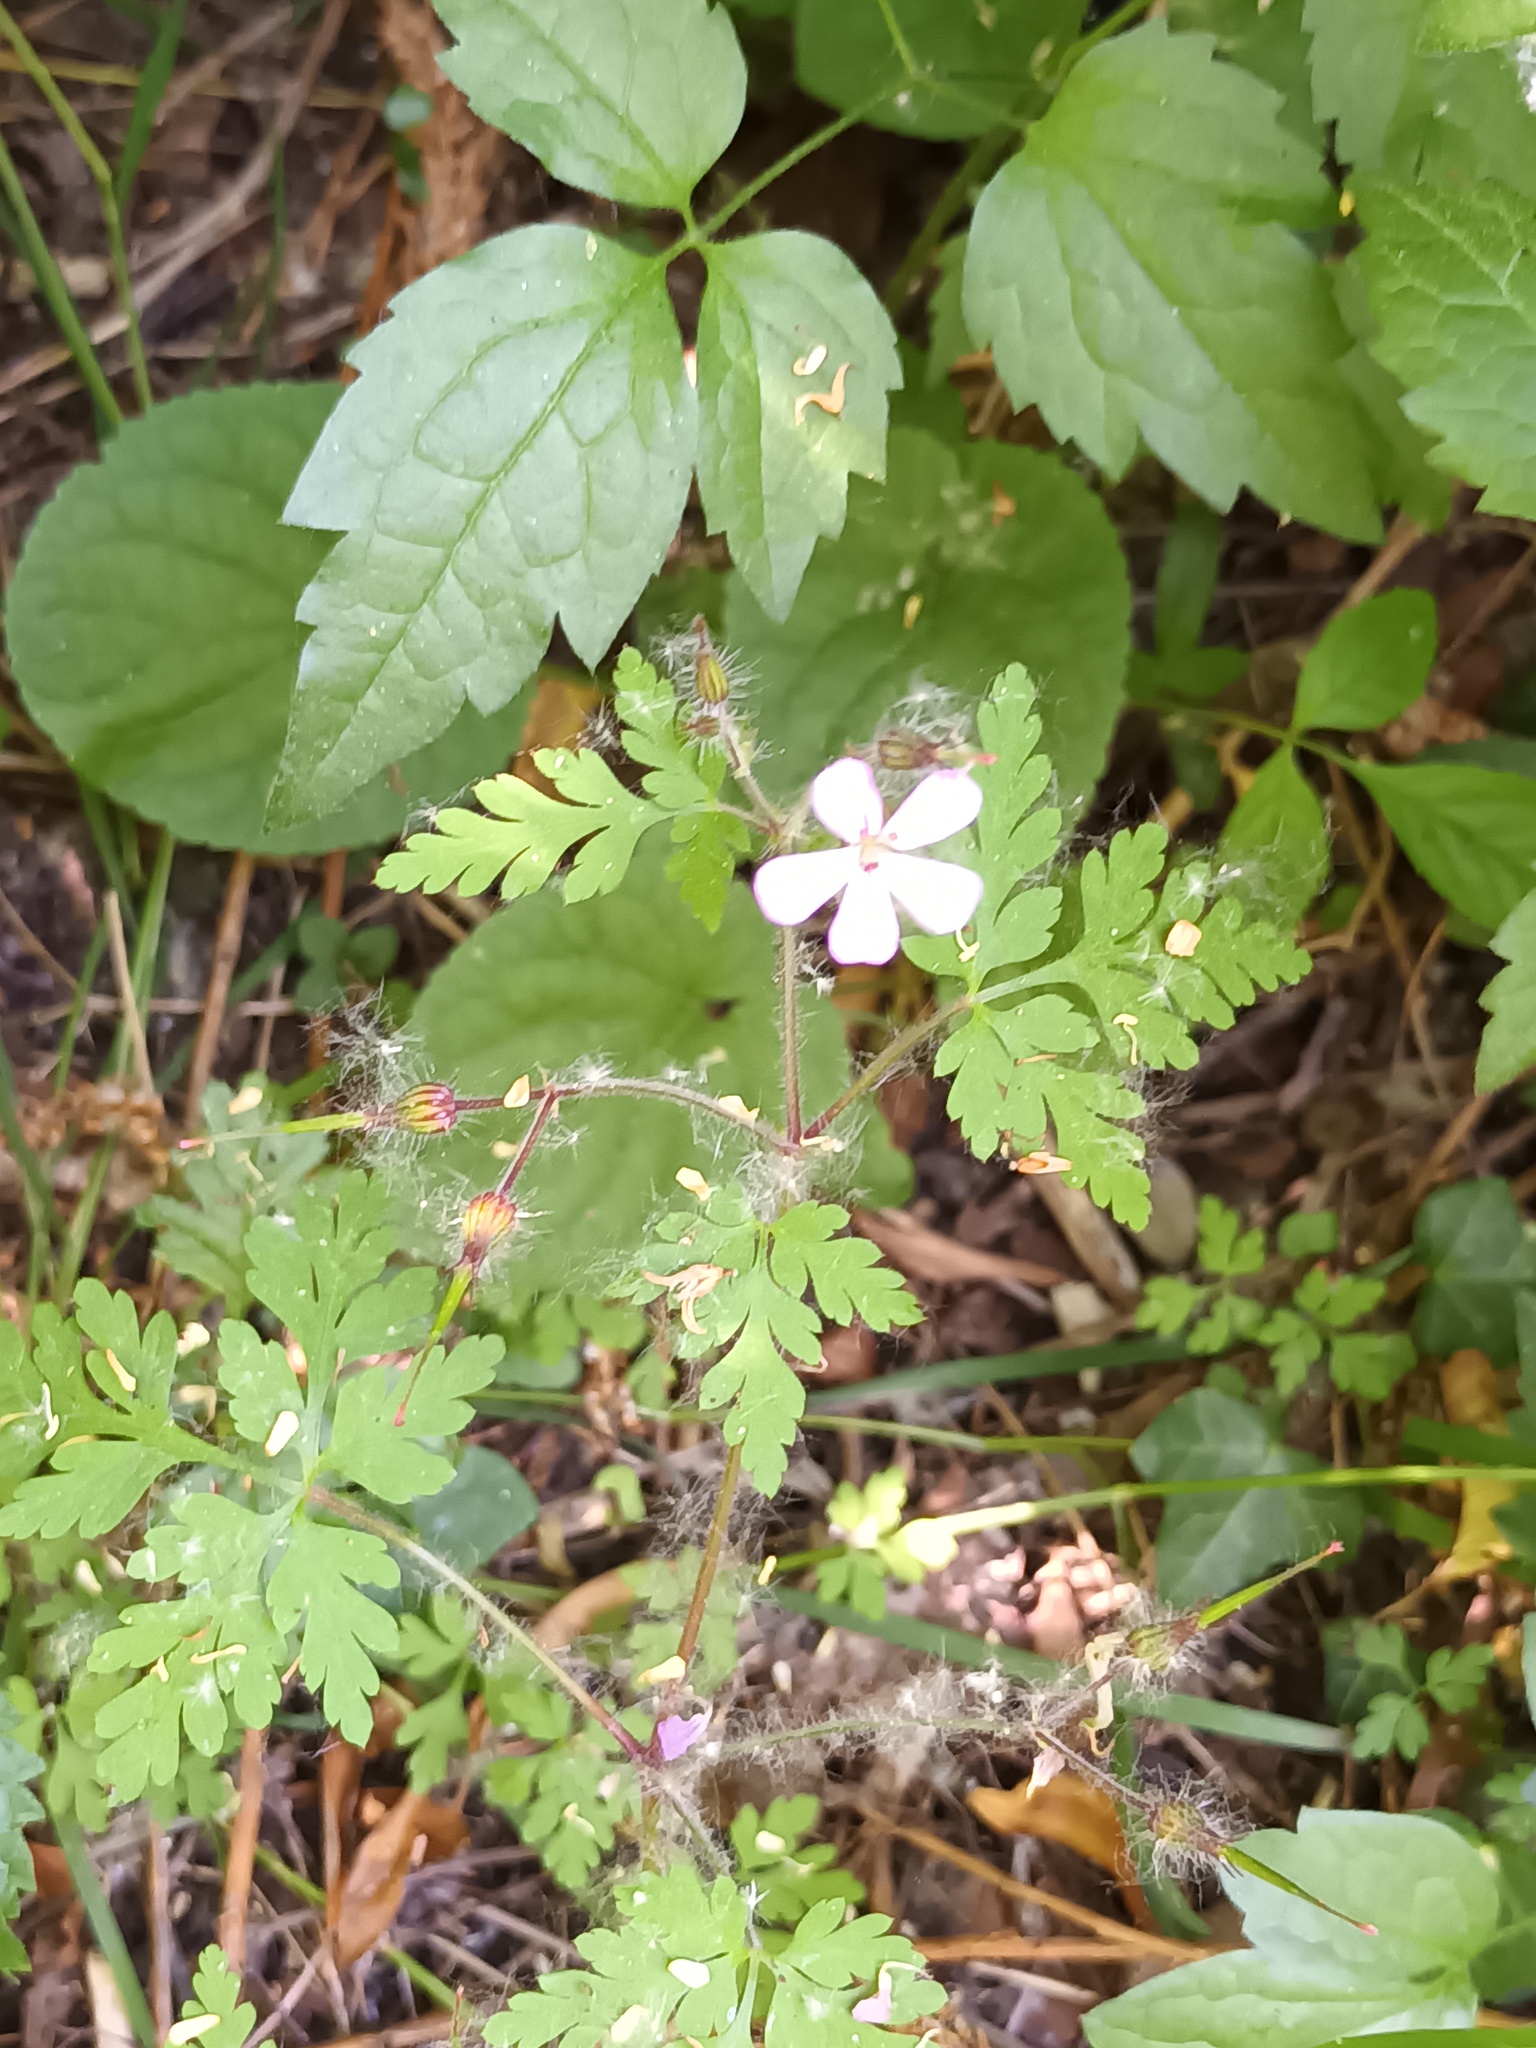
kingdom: Plantae
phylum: Tracheophyta
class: Magnoliopsida
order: Geraniales
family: Geraniaceae
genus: Geranium
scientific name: Geranium robertianum
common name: Herb-robert
